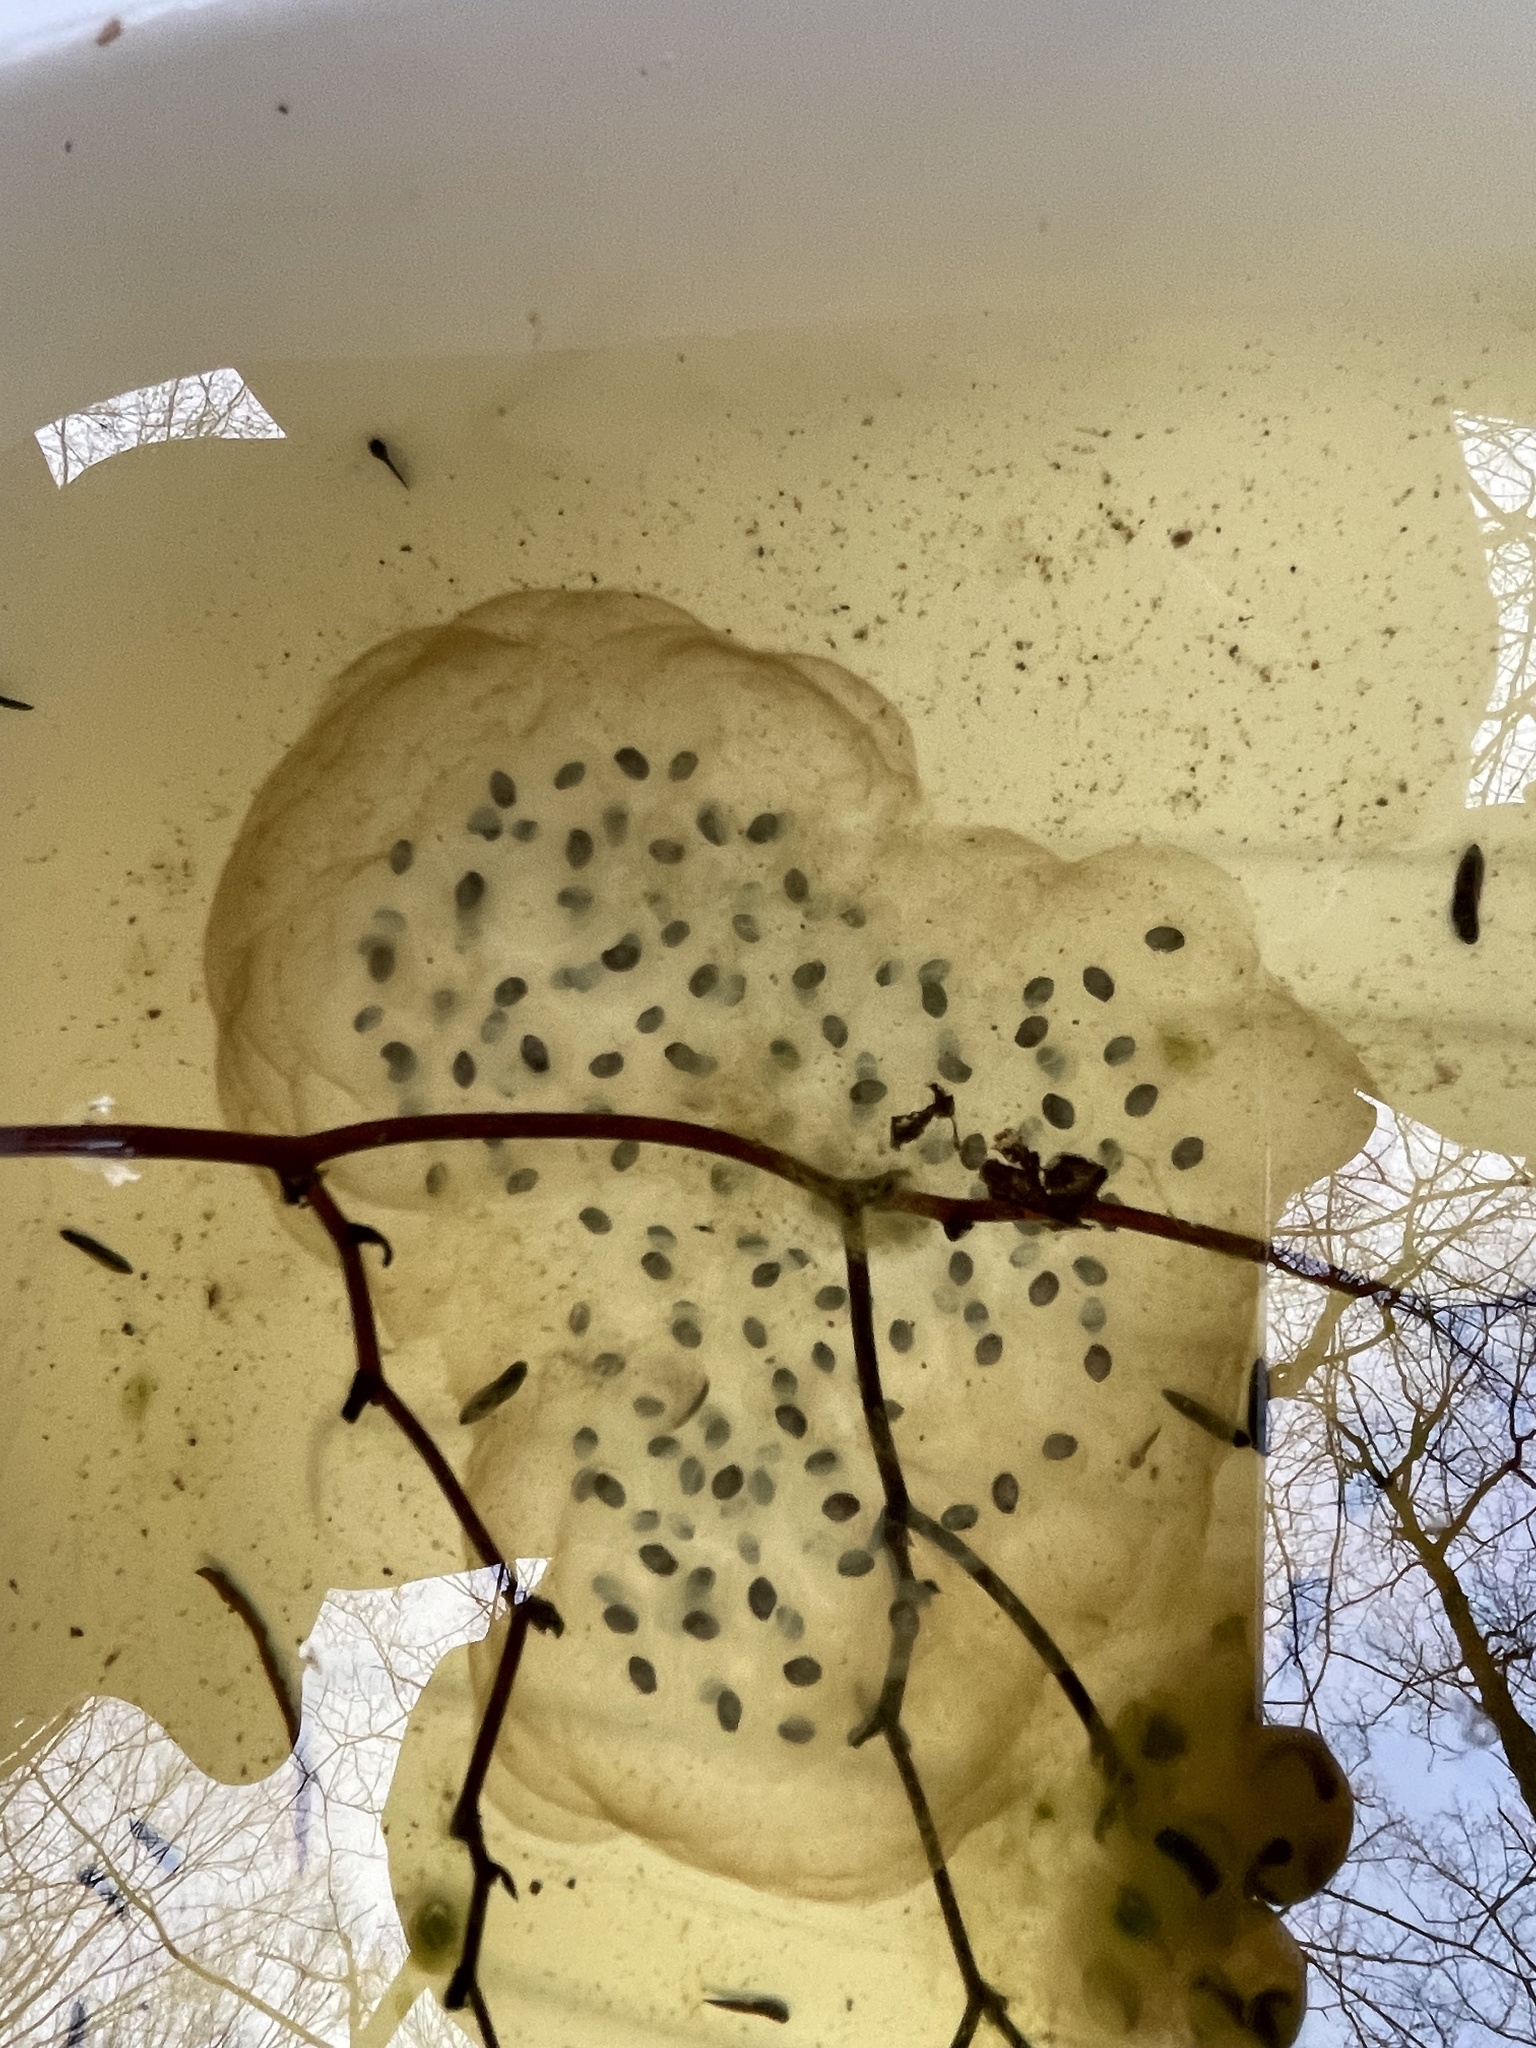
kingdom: Animalia
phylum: Chordata
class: Amphibia
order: Caudata
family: Ambystomatidae
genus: Ambystoma
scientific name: Ambystoma maculatum
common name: Spotted salamander
